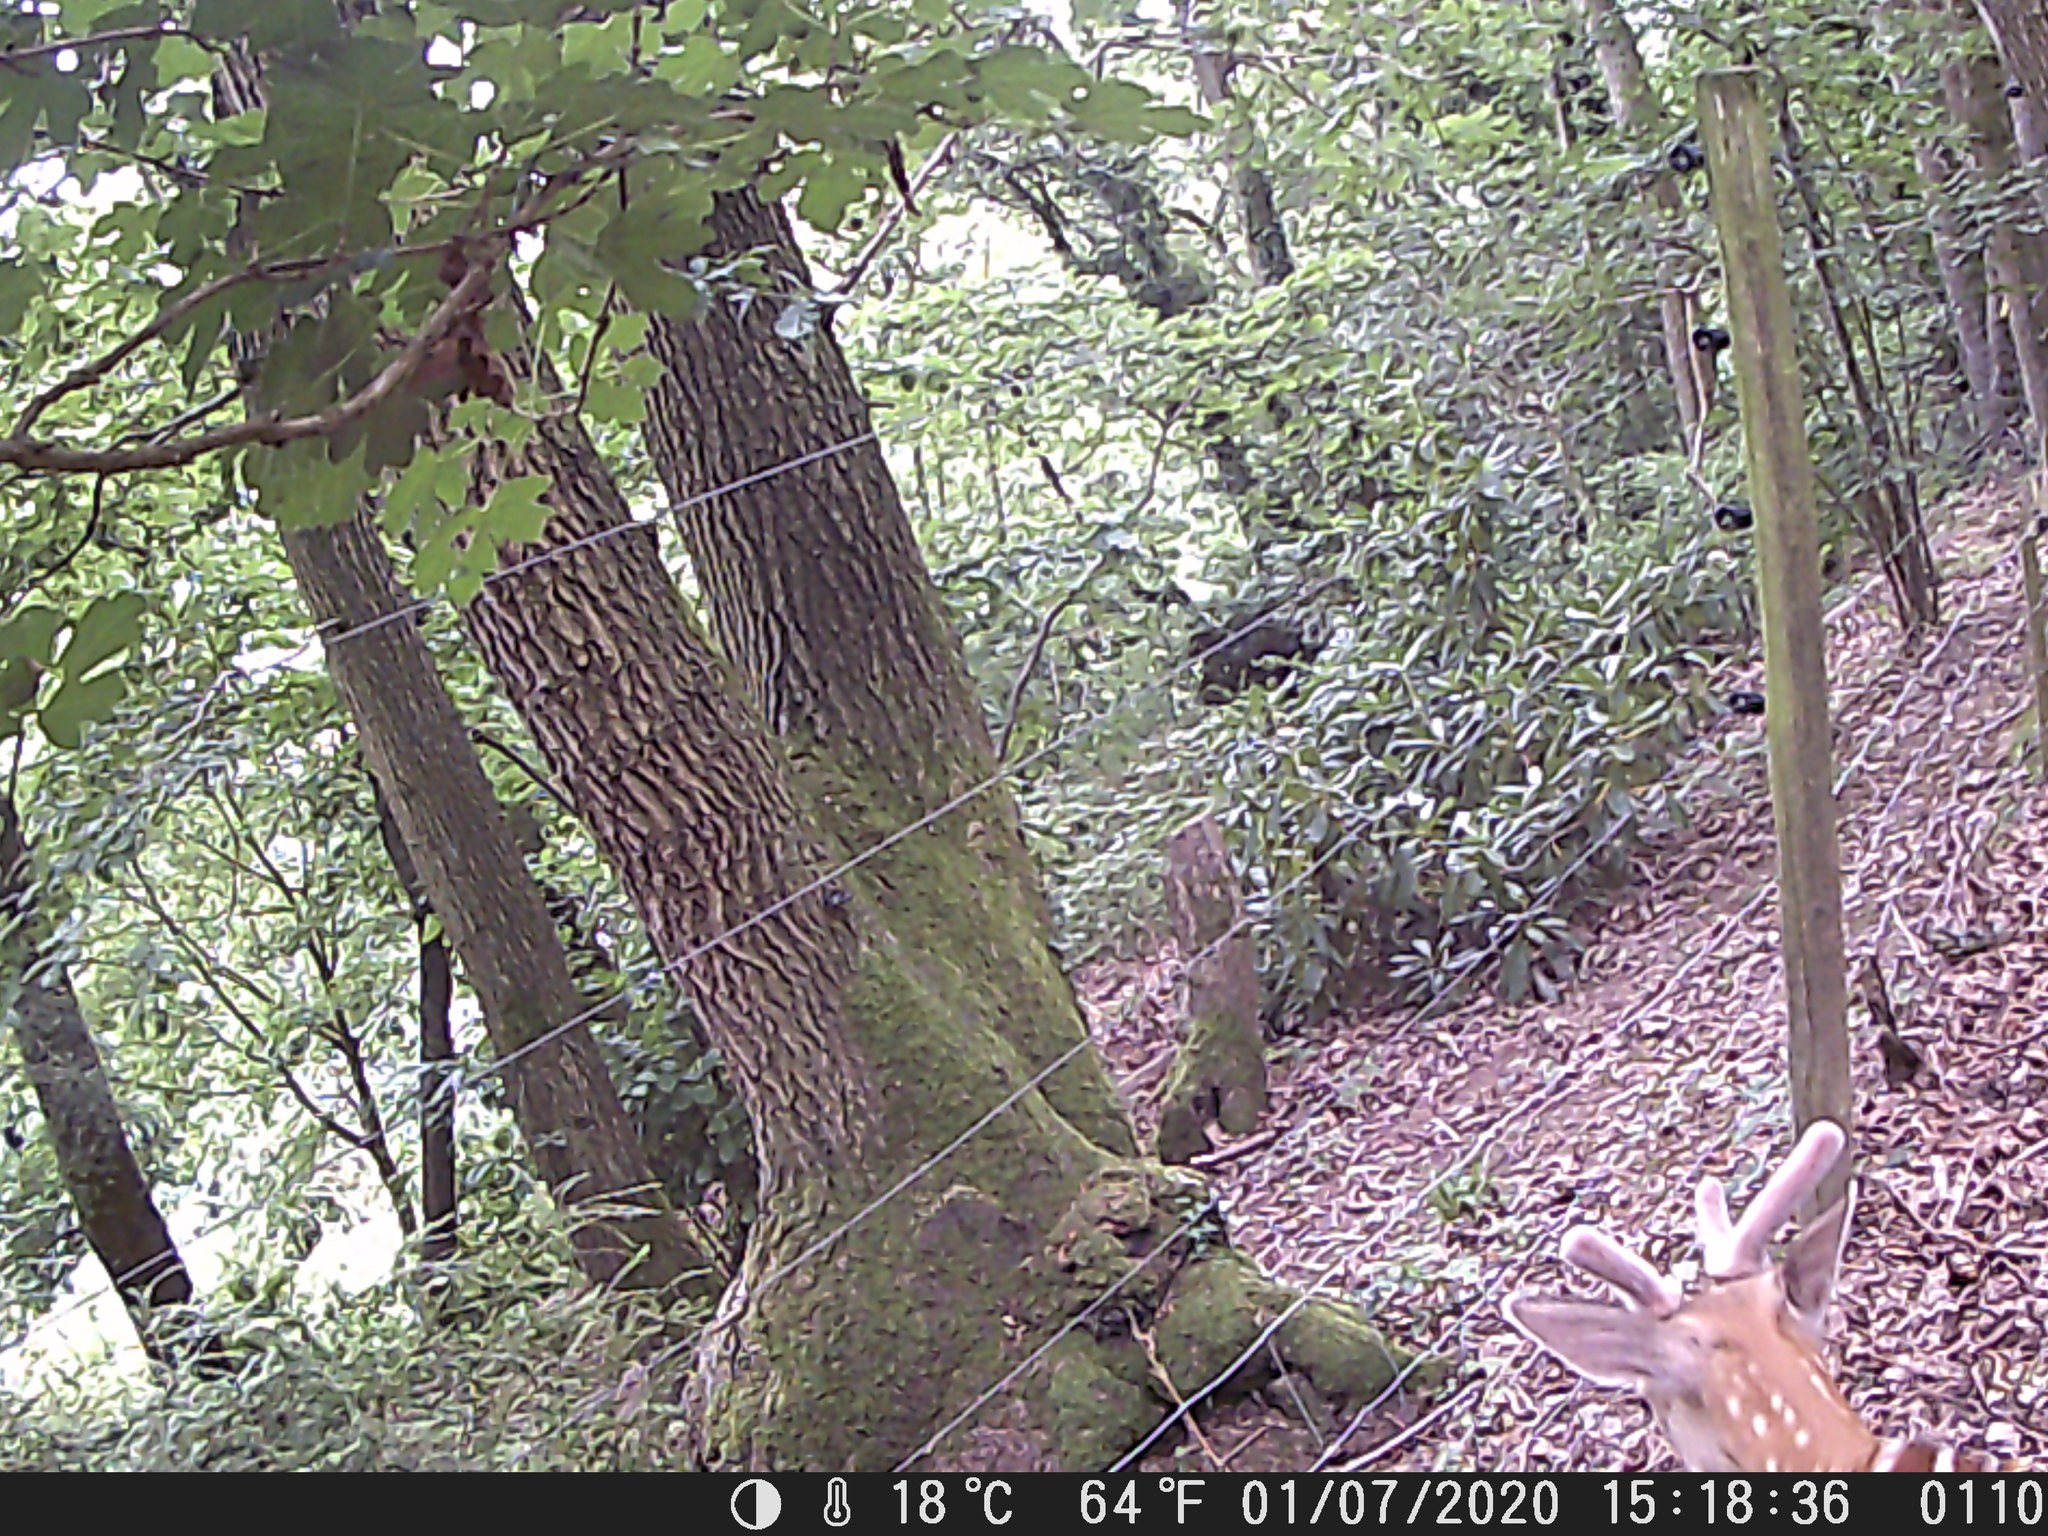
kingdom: Animalia
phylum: Chordata
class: Mammalia
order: Artiodactyla
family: Cervidae
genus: Dama
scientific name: Dama dama
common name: Fallow deer
